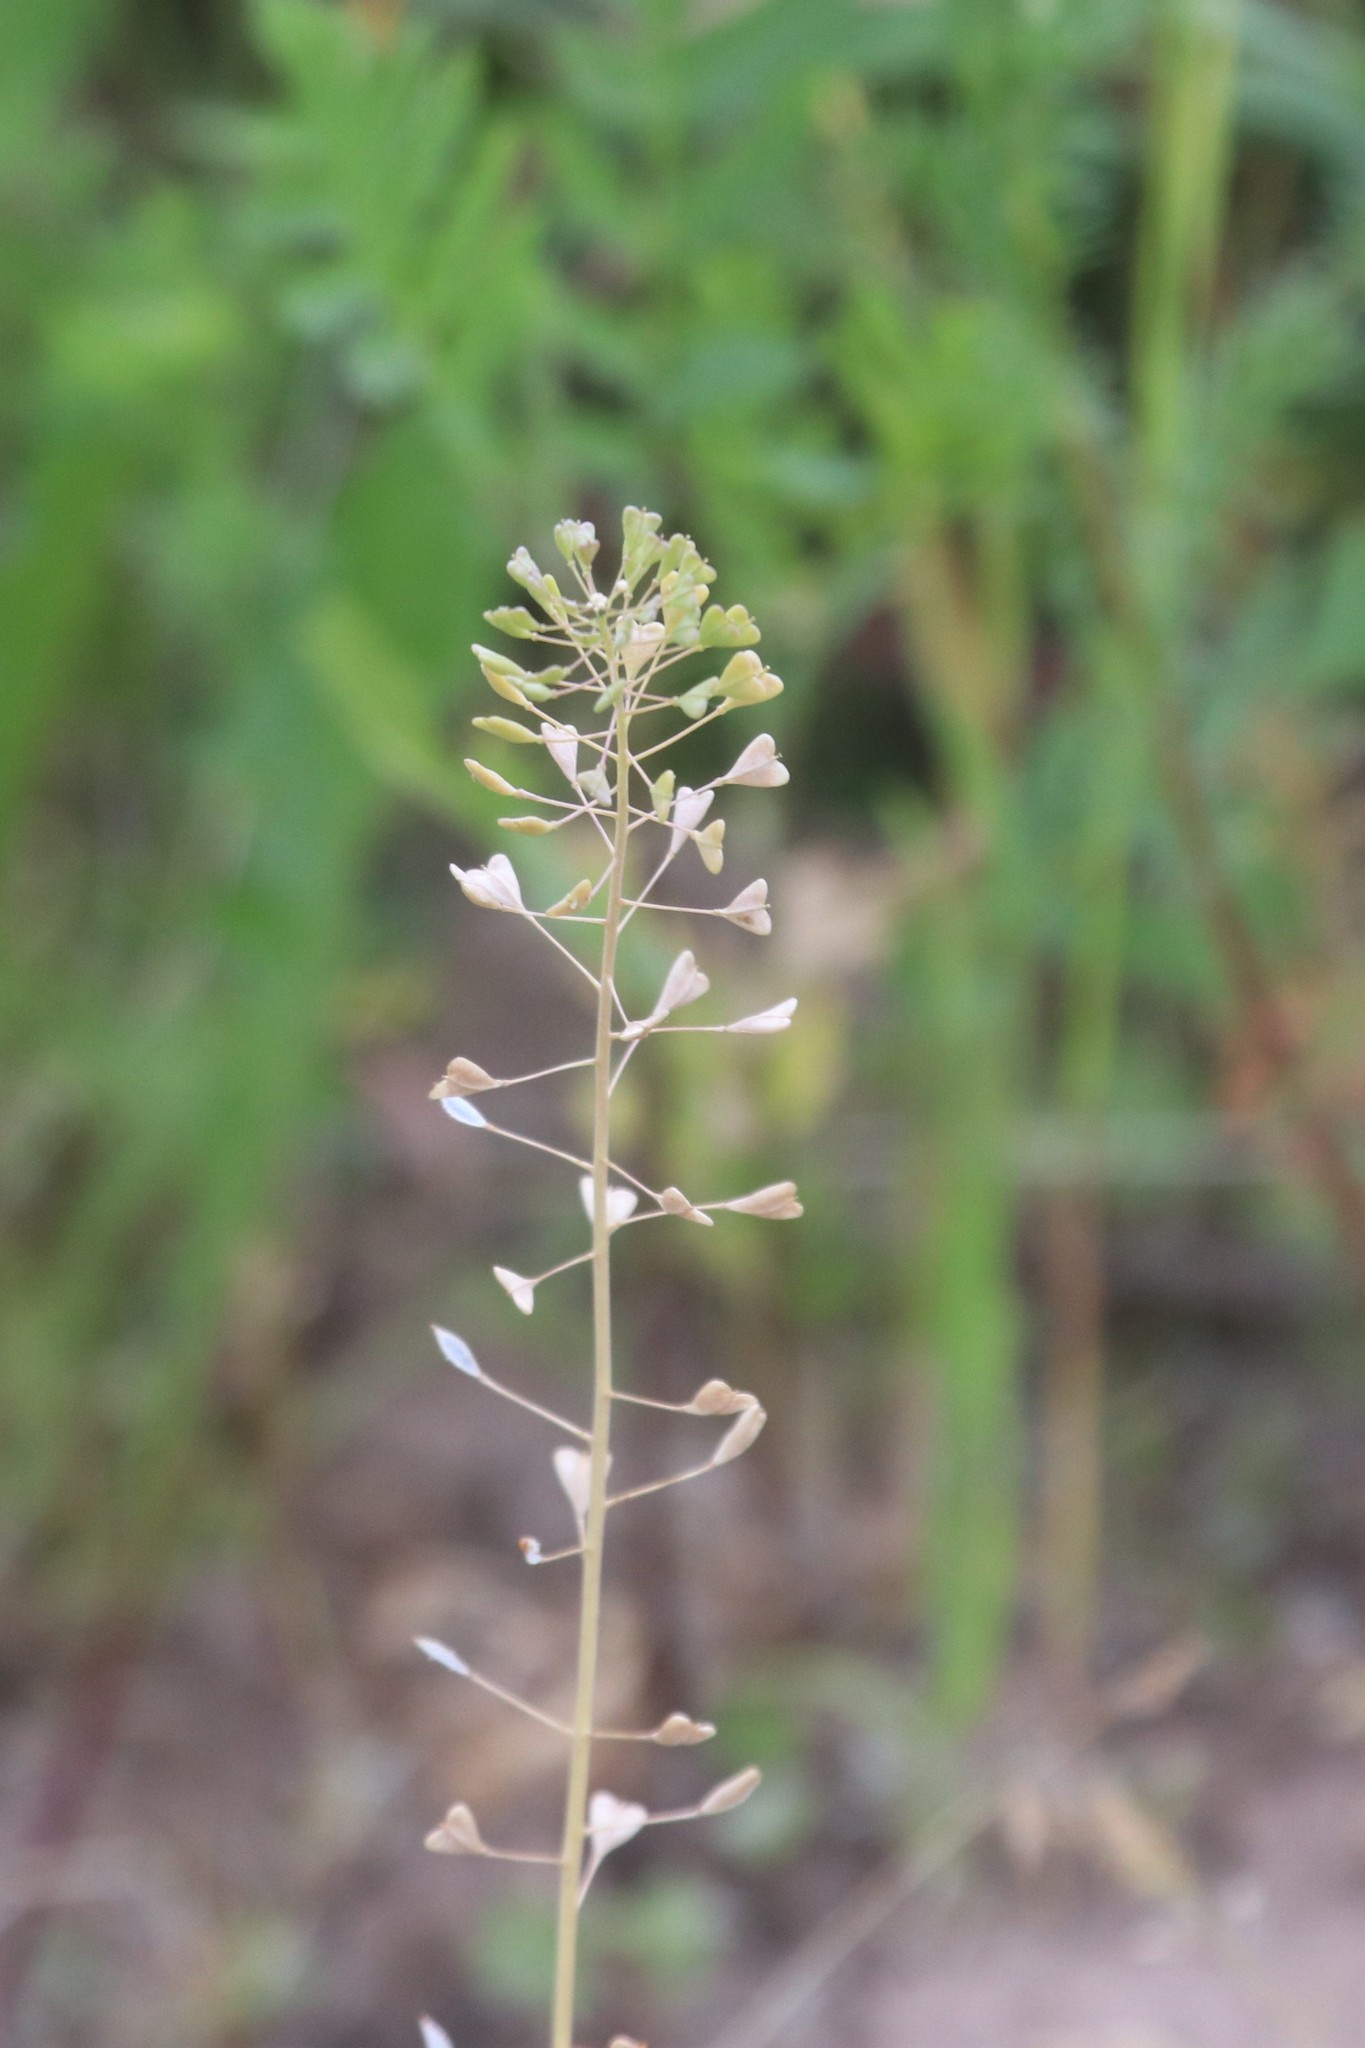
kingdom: Plantae
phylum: Tracheophyta
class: Magnoliopsida
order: Brassicales
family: Brassicaceae
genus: Capsella
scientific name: Capsella bursa-pastoris
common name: Shepherd's purse
